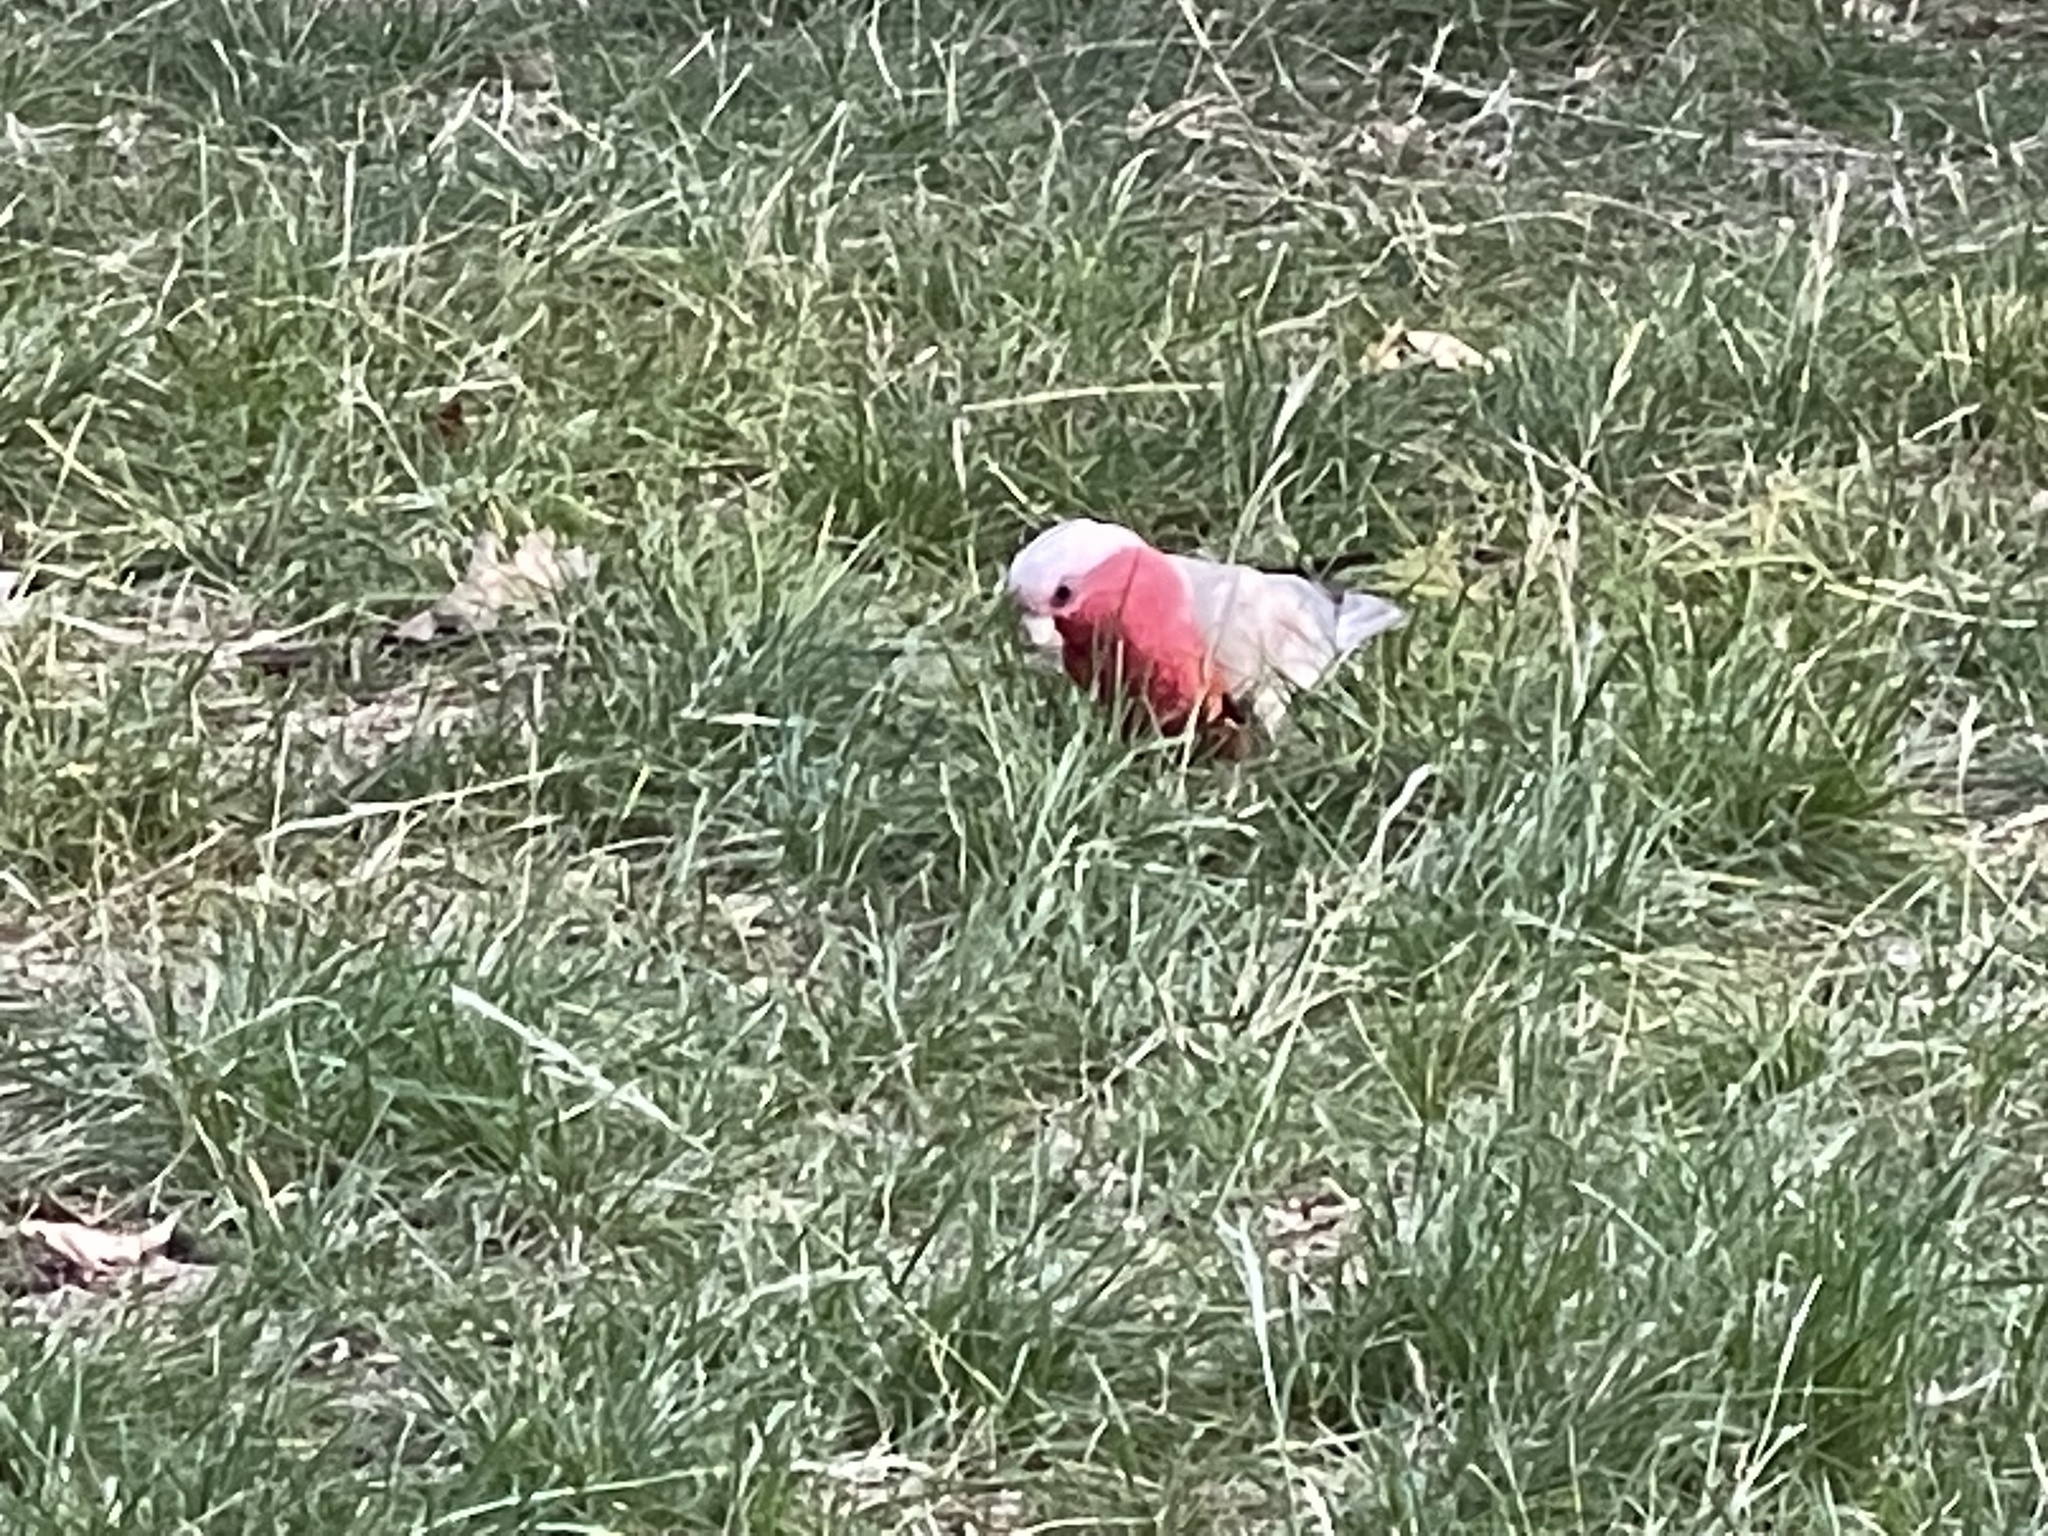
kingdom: Animalia
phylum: Chordata
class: Aves
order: Psittaciformes
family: Psittacidae
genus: Eolophus
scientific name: Eolophus roseicapilla
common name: Galah
